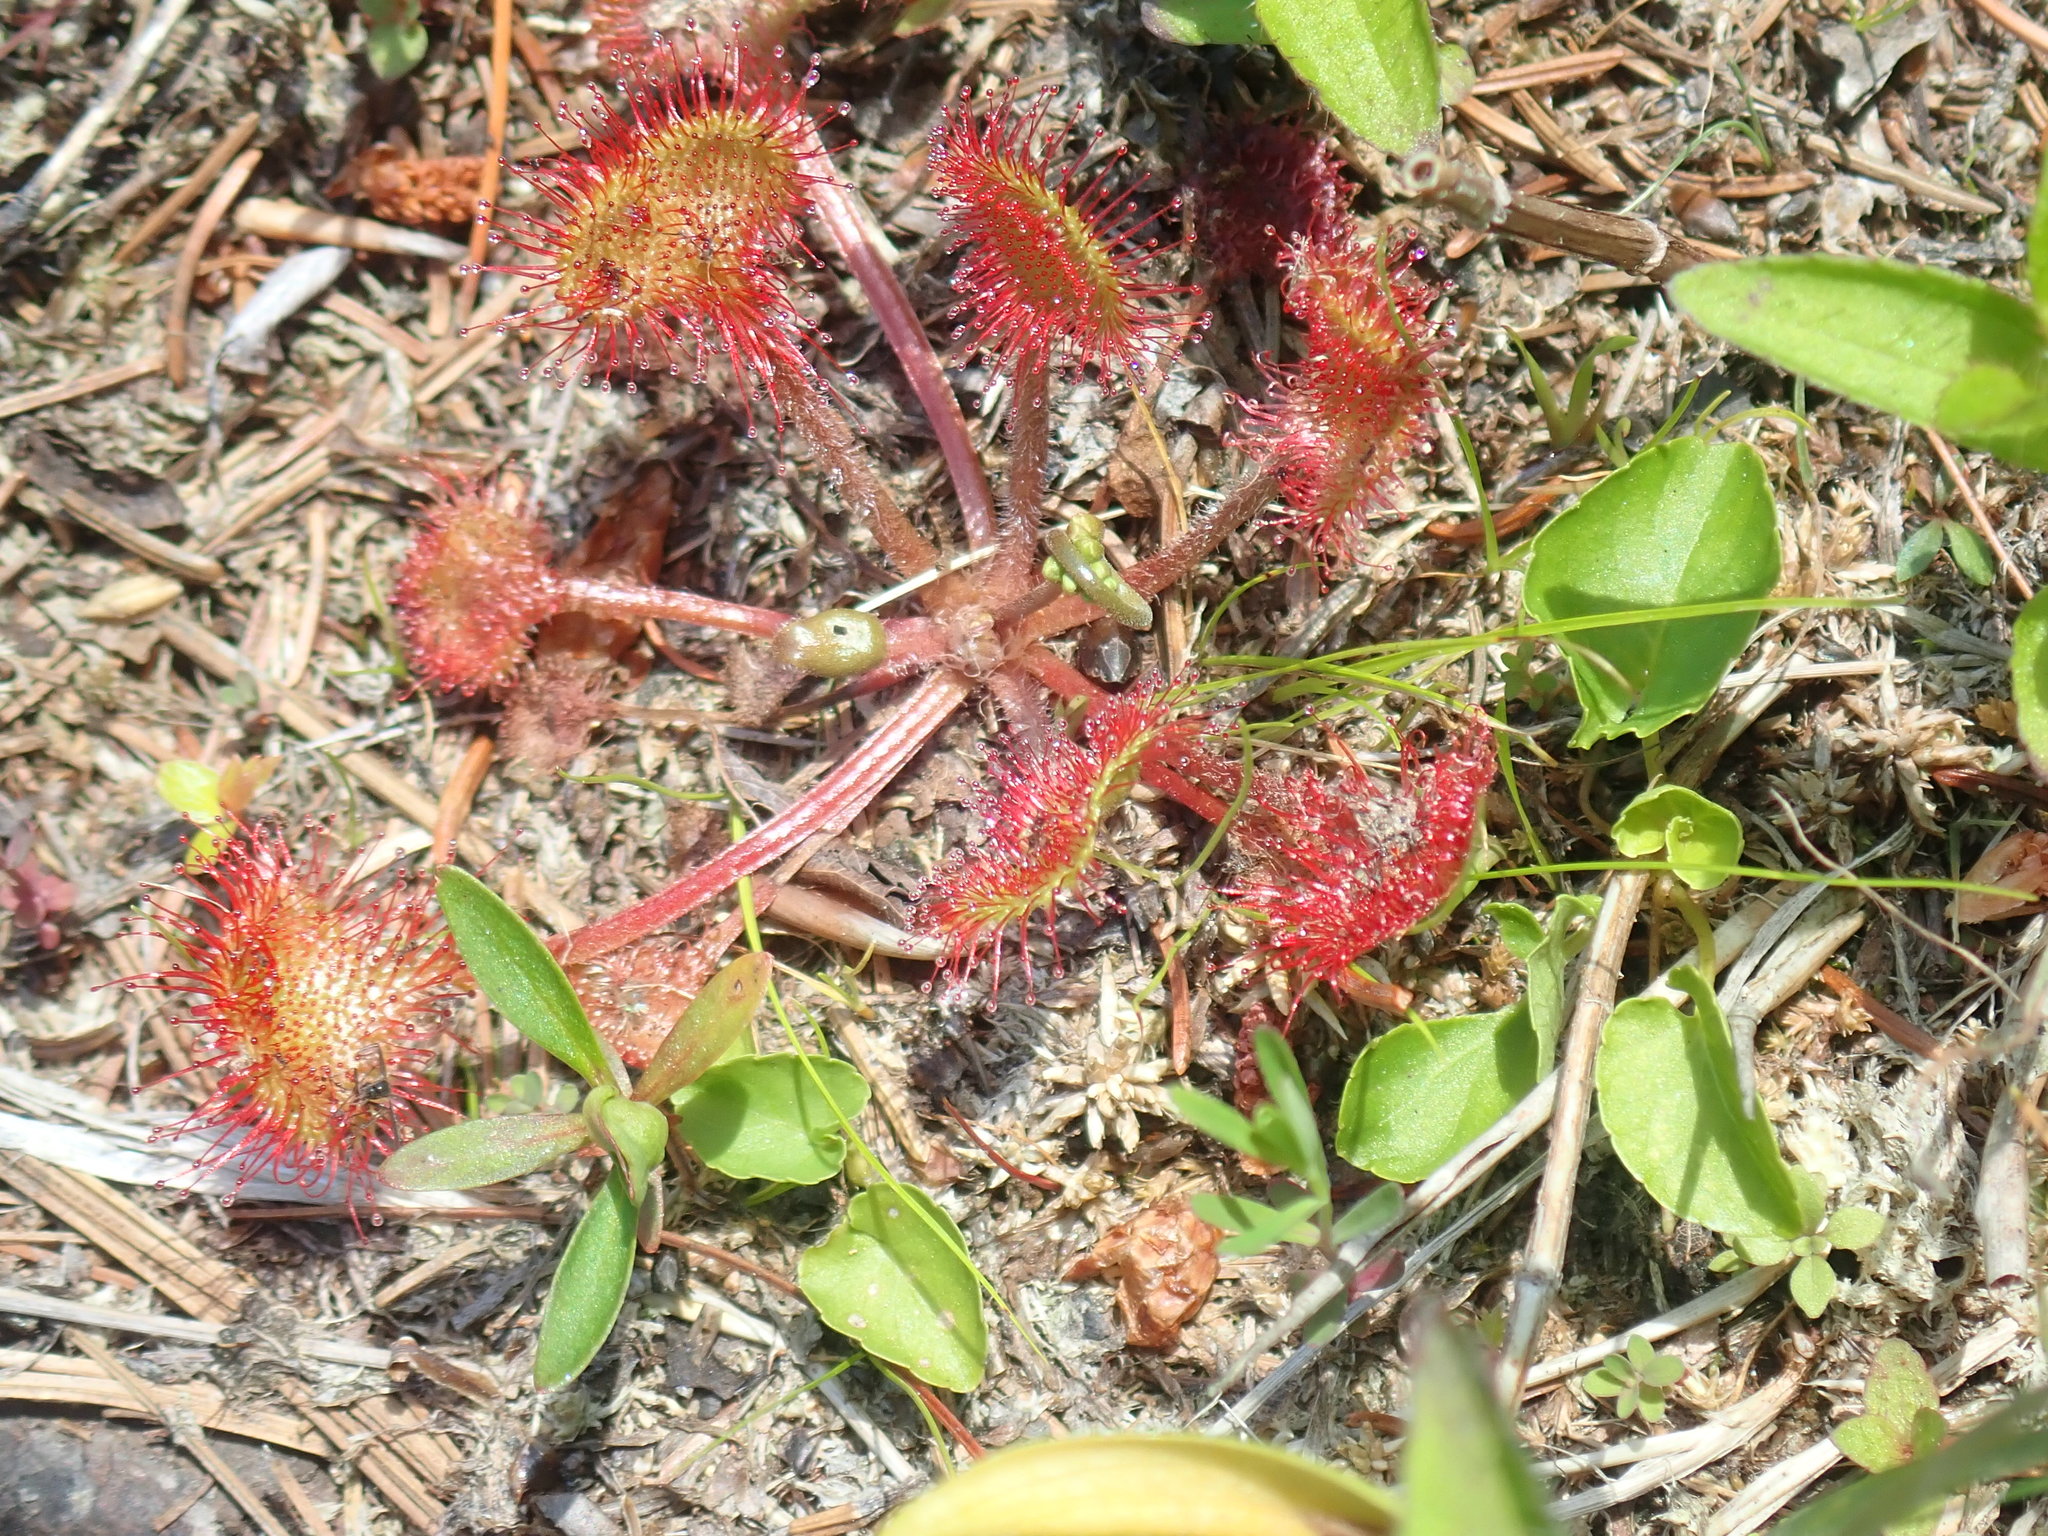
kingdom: Plantae
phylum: Tracheophyta
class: Magnoliopsida
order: Caryophyllales
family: Droseraceae
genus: Drosera
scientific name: Drosera rotundifolia
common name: Round-leaved sundew
